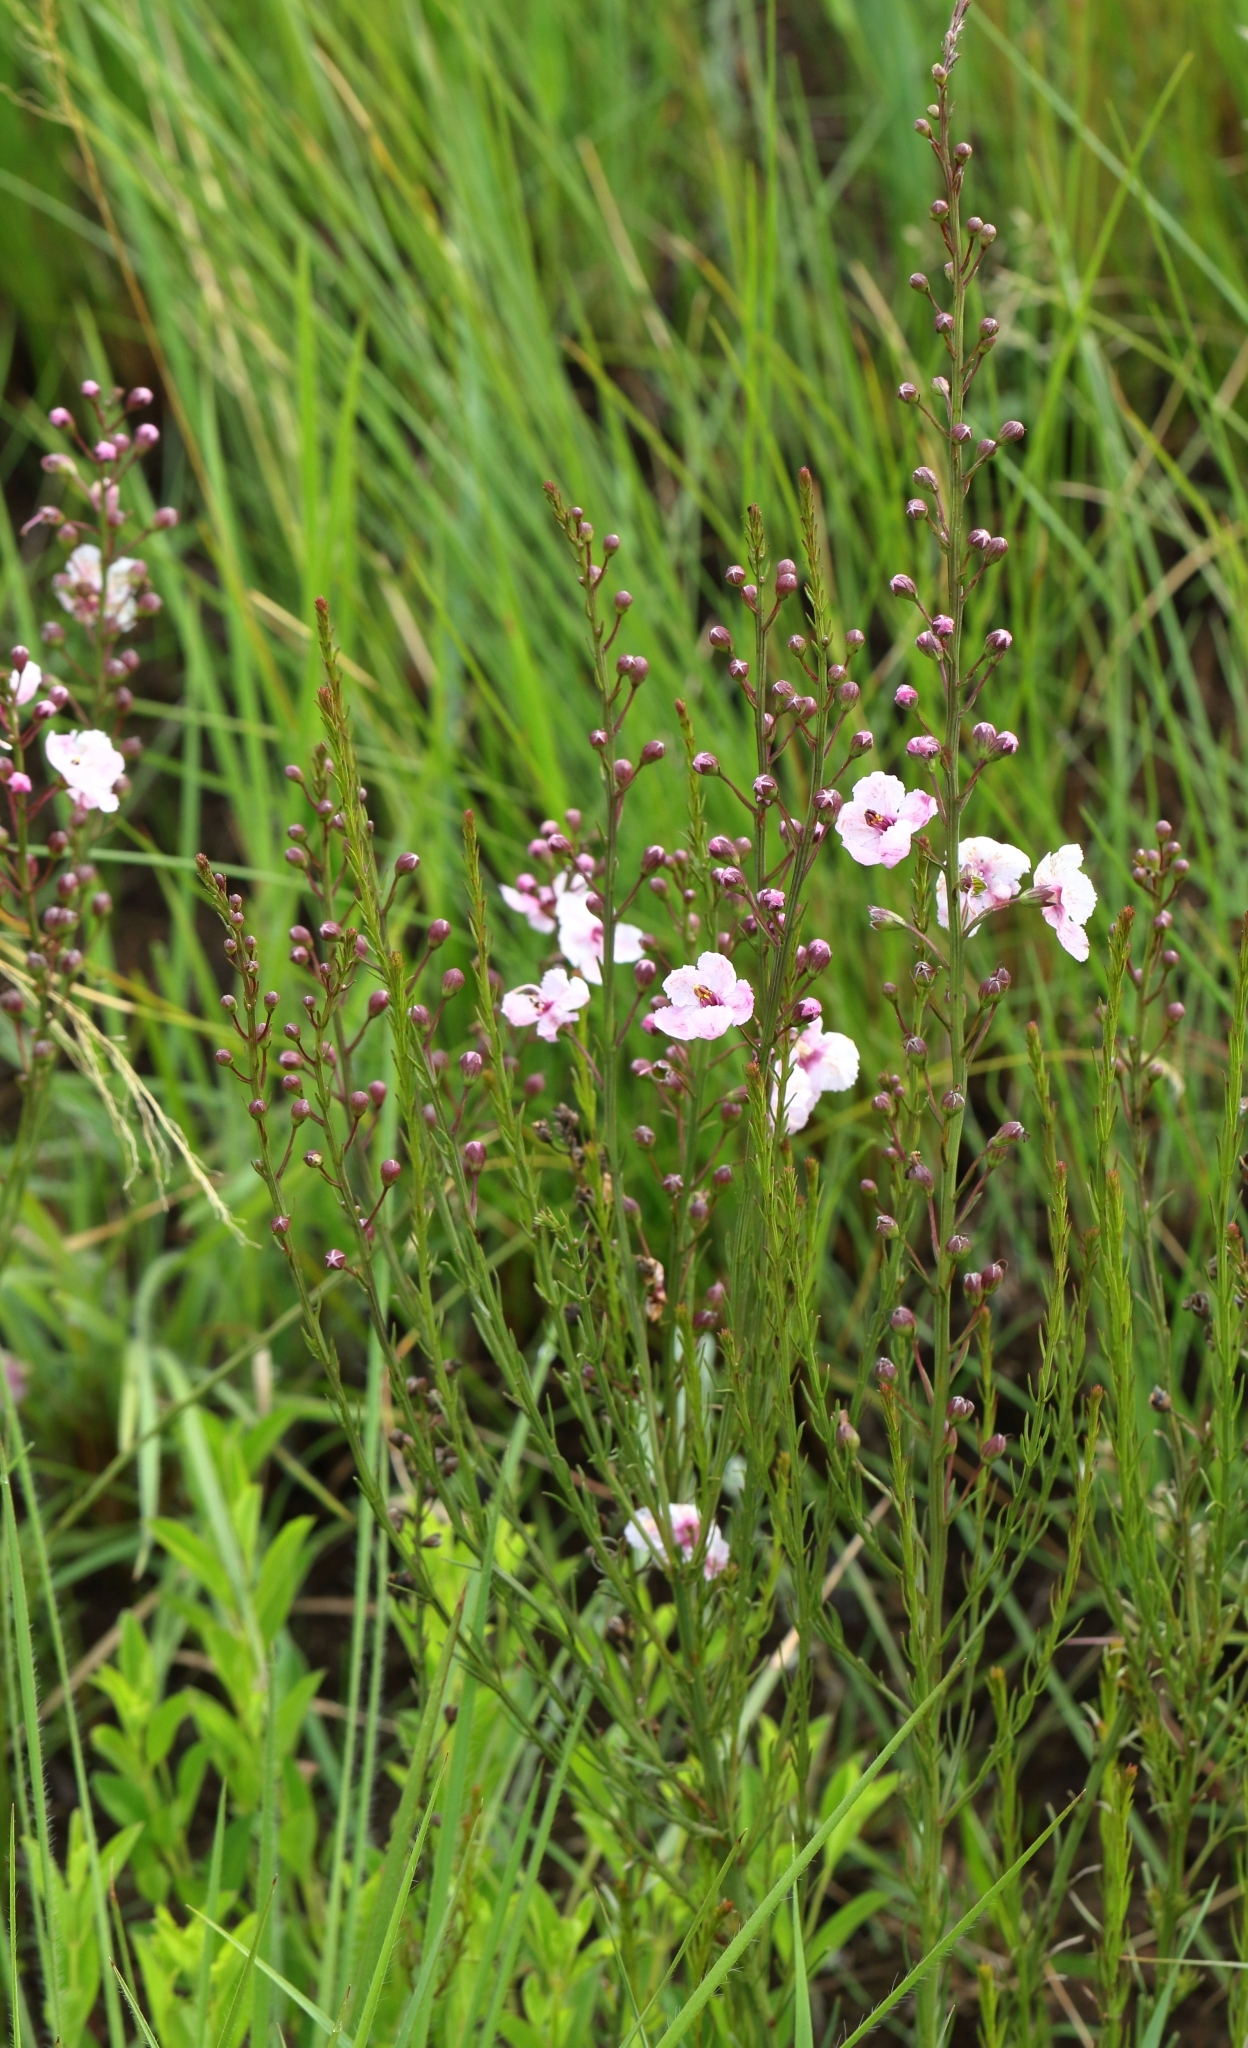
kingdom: Plantae
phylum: Tracheophyta
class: Magnoliopsida
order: Lamiales
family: Orobanchaceae
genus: Sopubia
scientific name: Sopubia simplex
